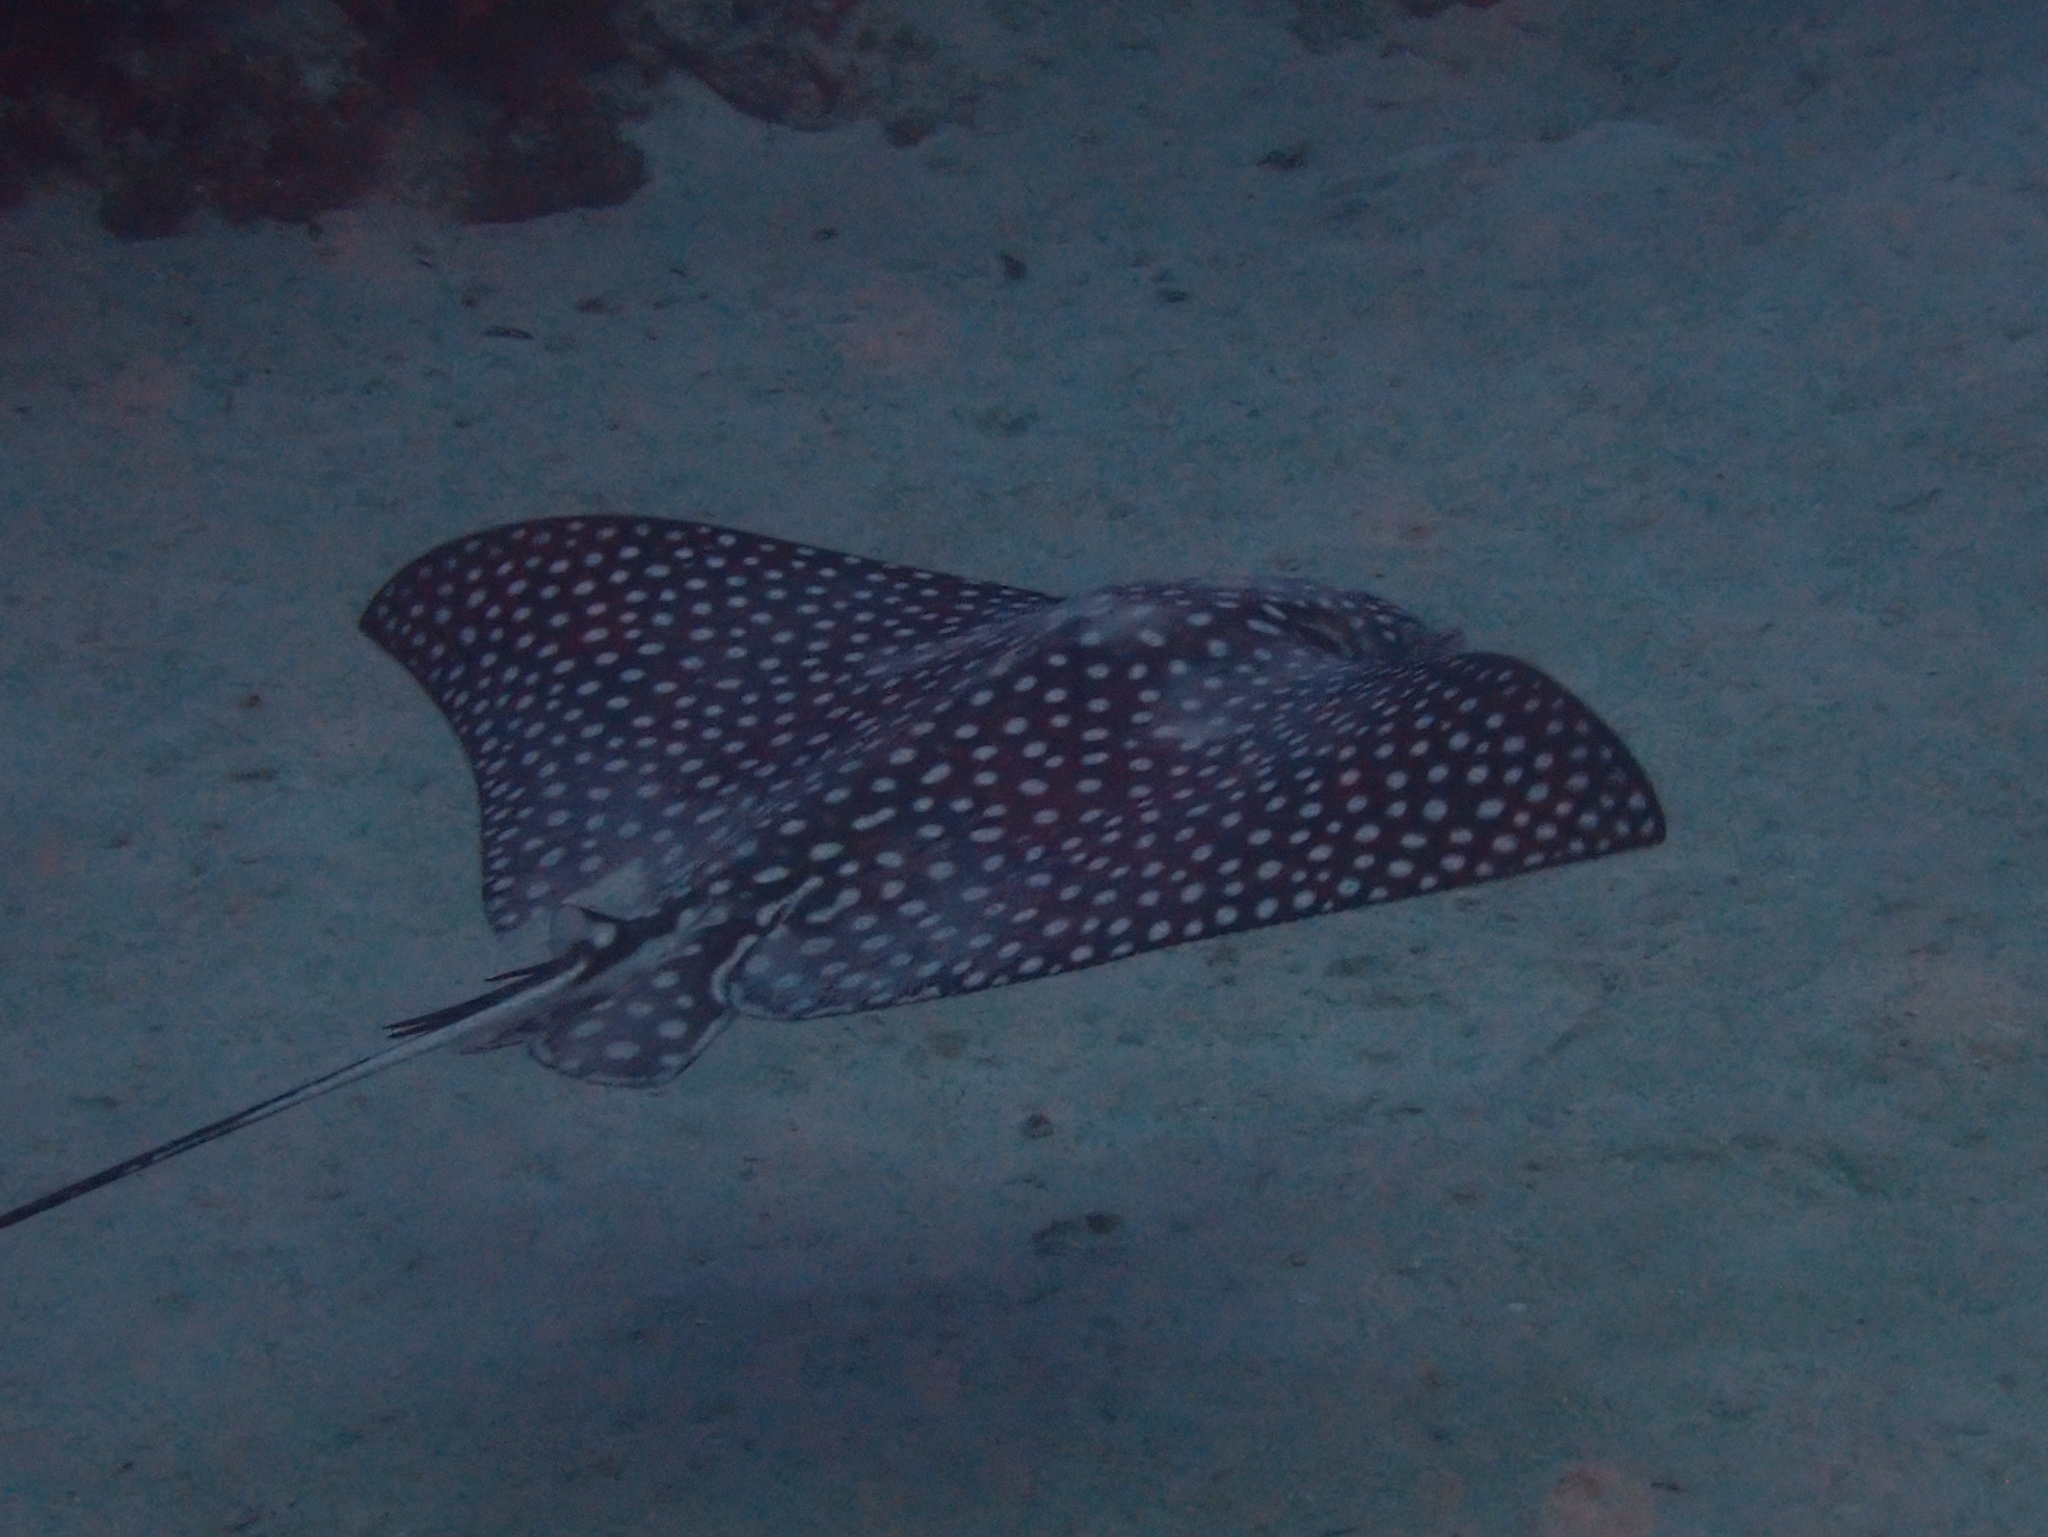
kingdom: Animalia
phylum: Chordata
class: Elasmobranchii
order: Myliobatiformes
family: Myliobatidae
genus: Aetobatus
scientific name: Aetobatus narinari
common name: Spotted eagle ray
